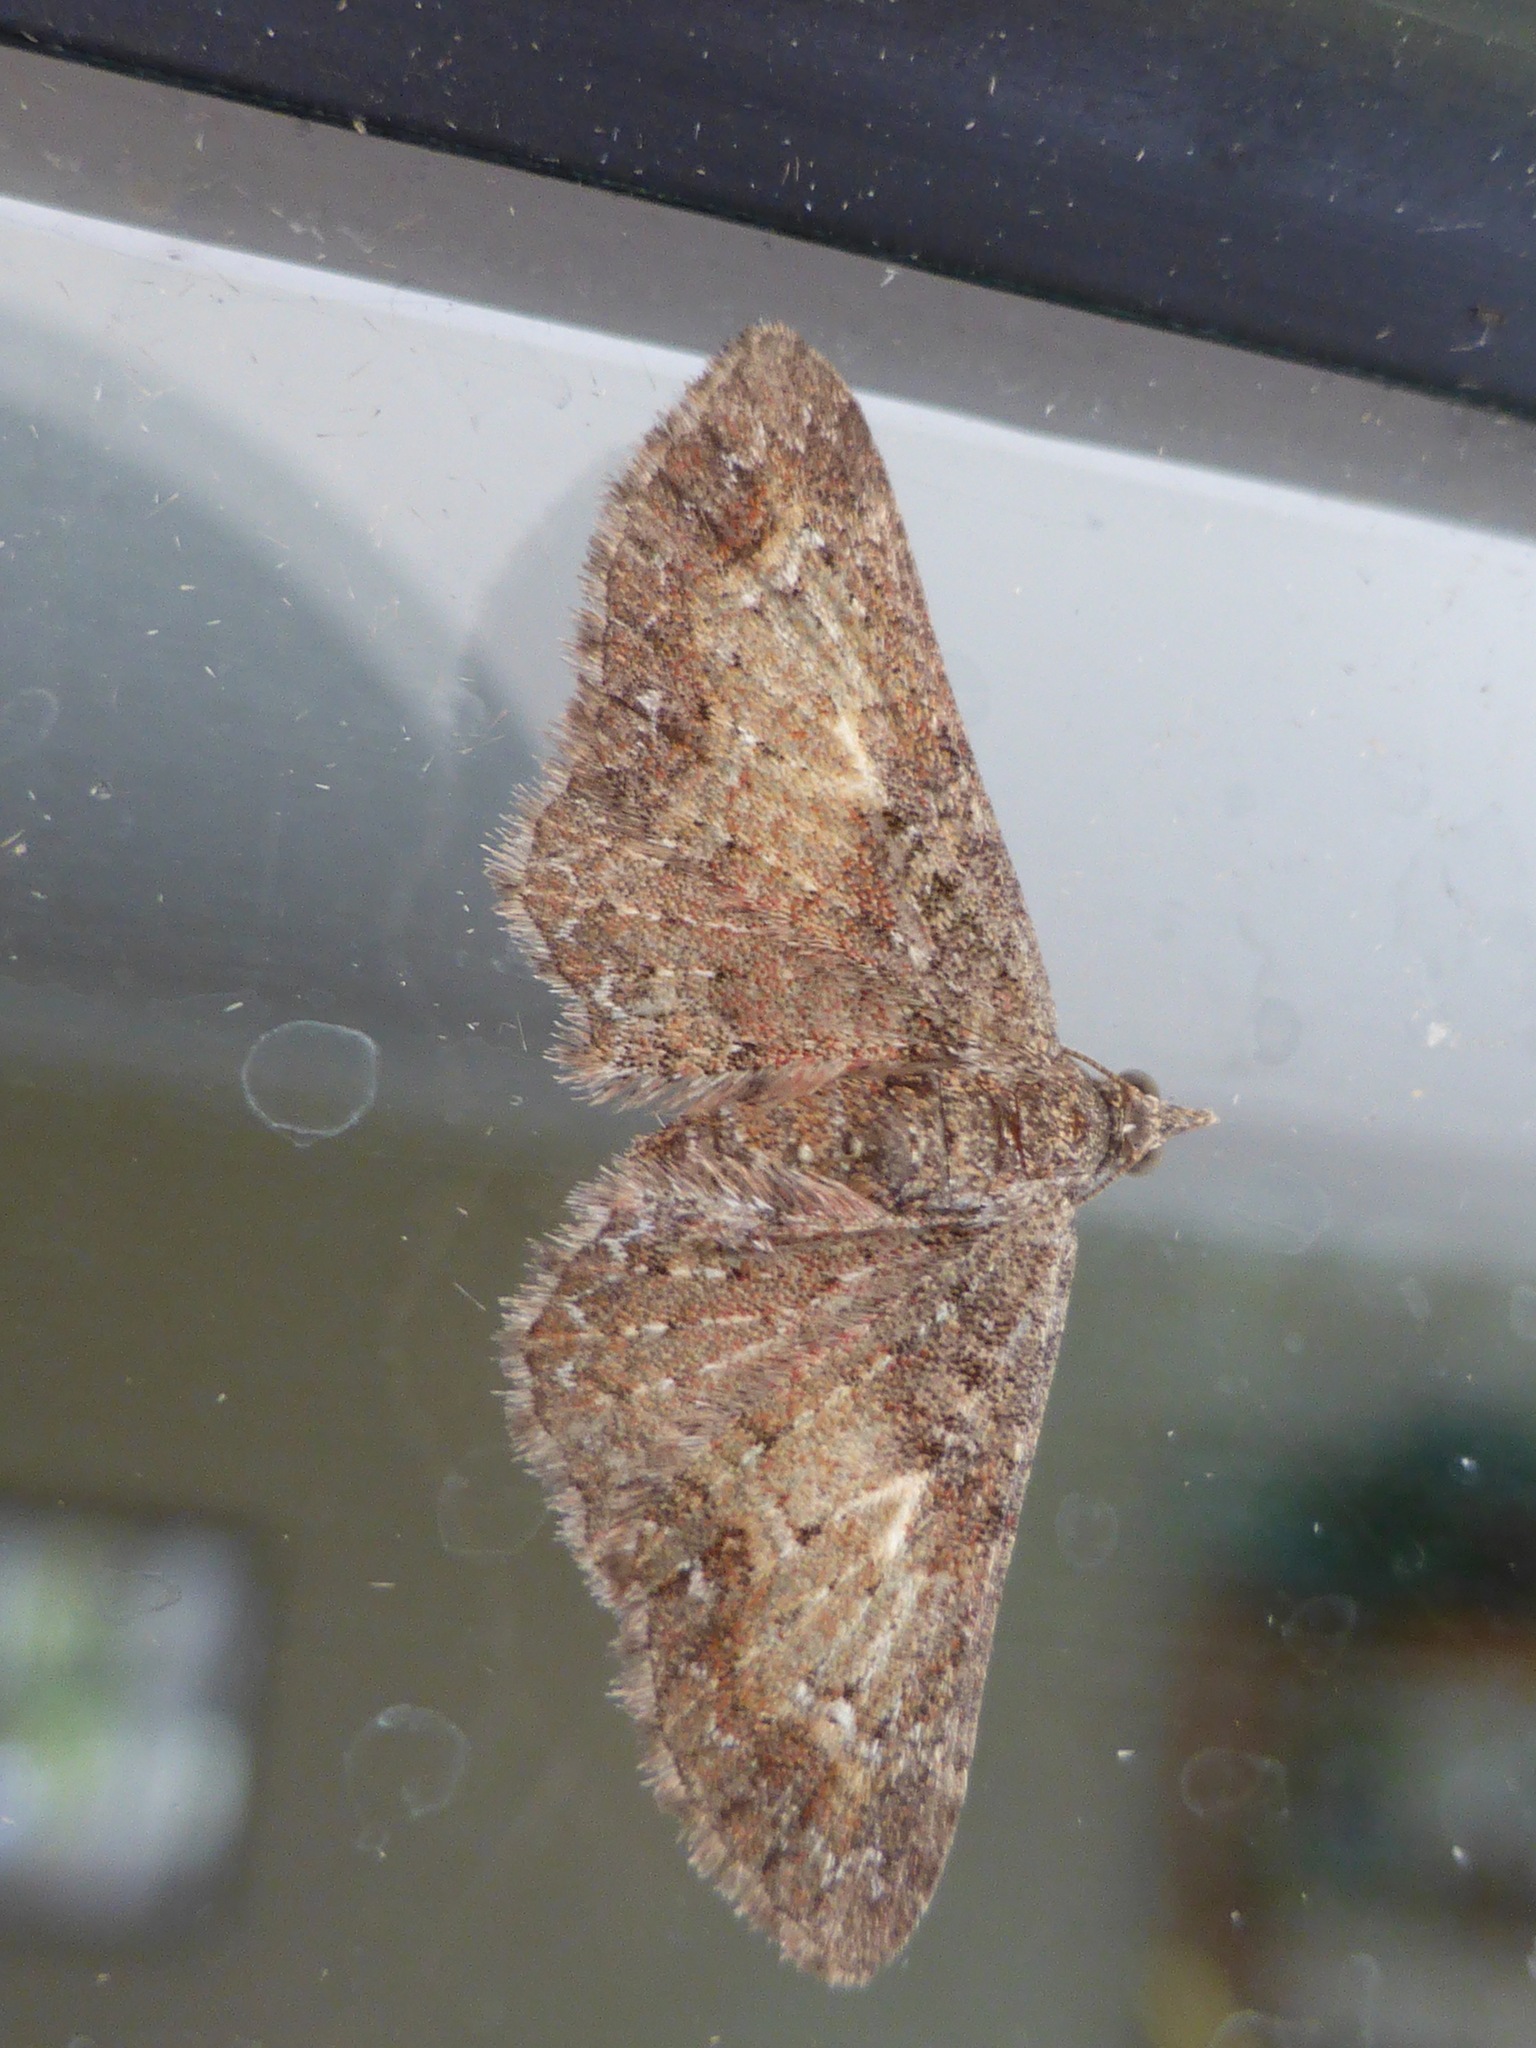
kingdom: Animalia
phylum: Arthropoda
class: Insecta
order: Lepidoptera
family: Geometridae
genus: Pasiphila
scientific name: Pasiphila lunata
